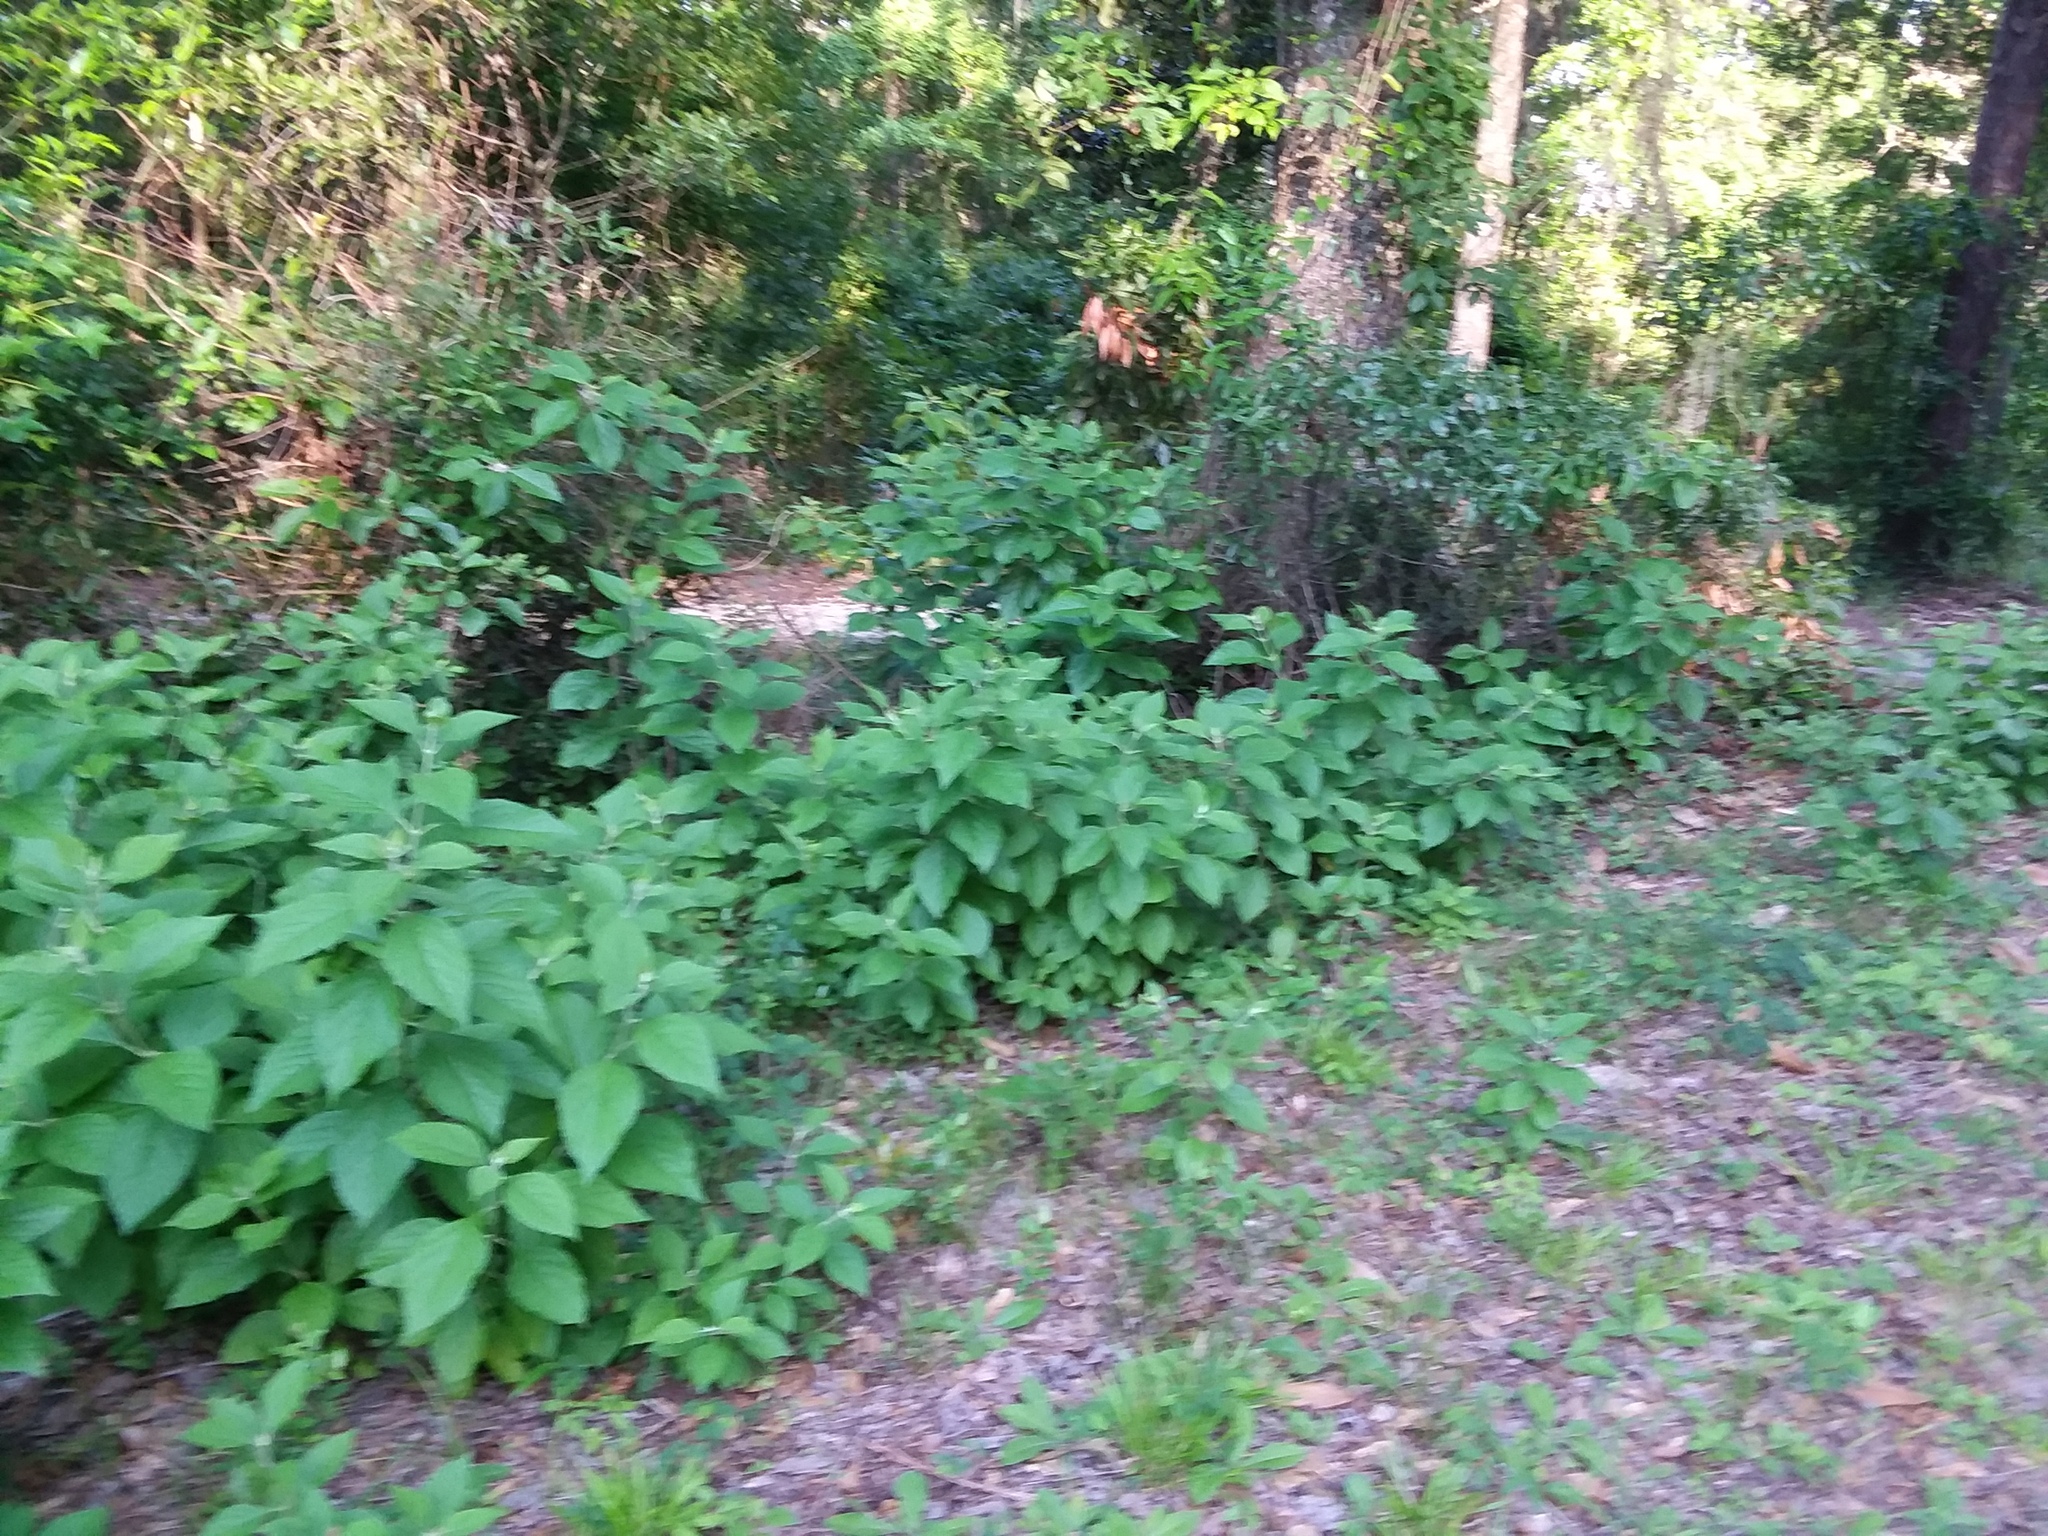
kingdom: Plantae
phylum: Tracheophyta
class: Magnoliopsida
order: Lamiales
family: Lamiaceae
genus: Callicarpa
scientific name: Callicarpa americana
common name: American beautyberry
